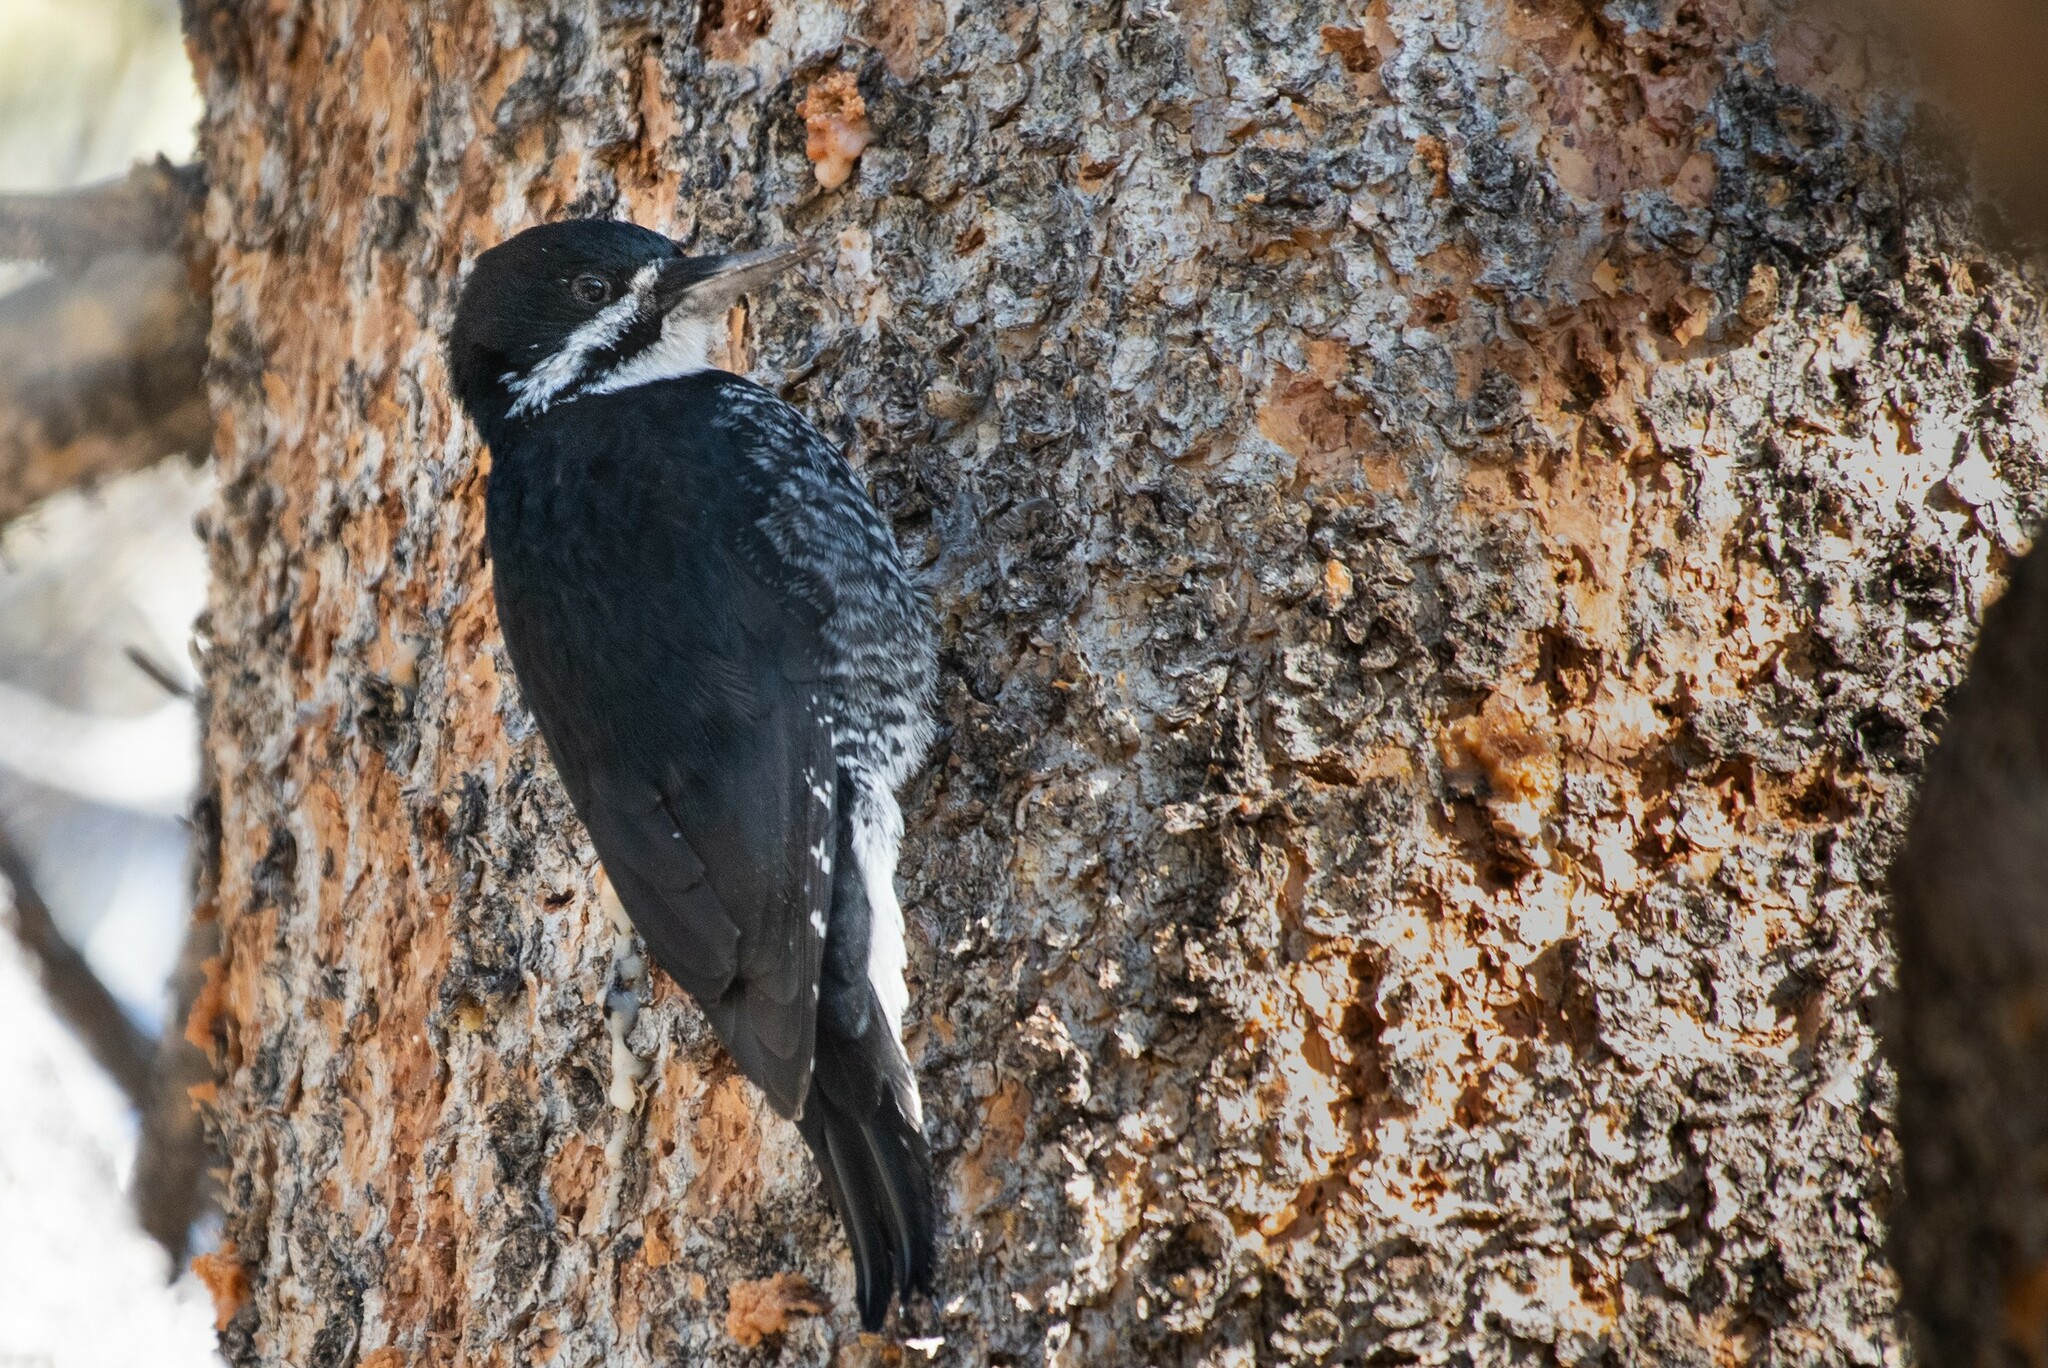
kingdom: Animalia
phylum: Chordata
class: Aves
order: Piciformes
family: Picidae
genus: Picoides
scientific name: Picoides arcticus
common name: Black-backed woodpecker
